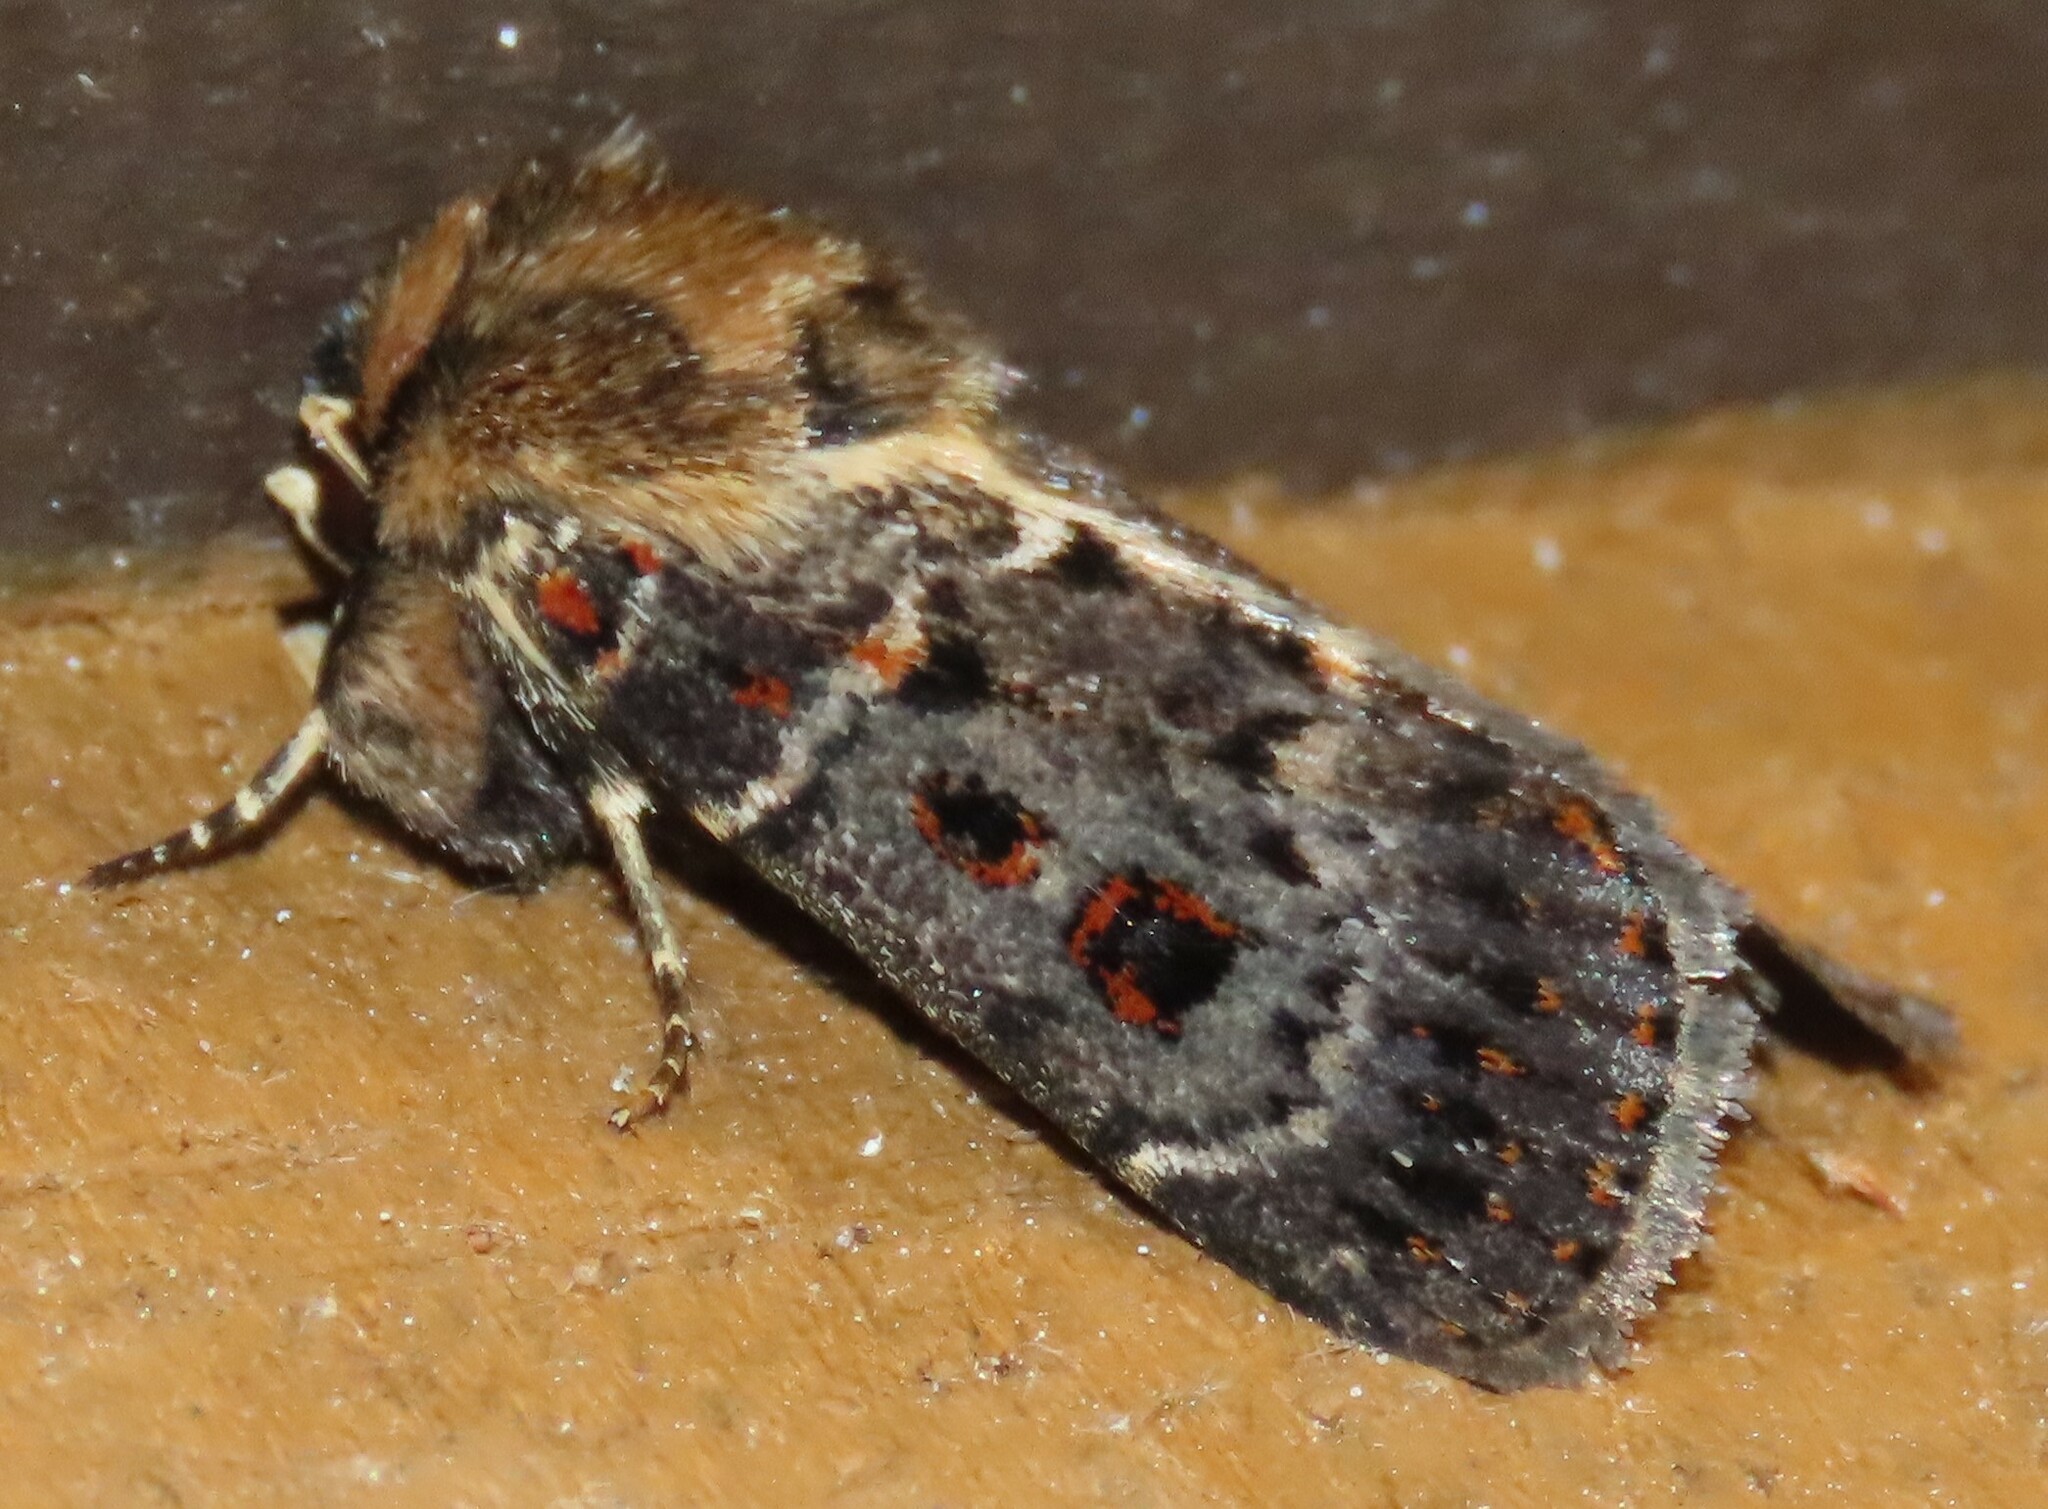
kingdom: Animalia
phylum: Arthropoda
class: Insecta
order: Lepidoptera
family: Noctuidae
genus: Proteuxoa
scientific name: Proteuxoa sanguinipuncta
